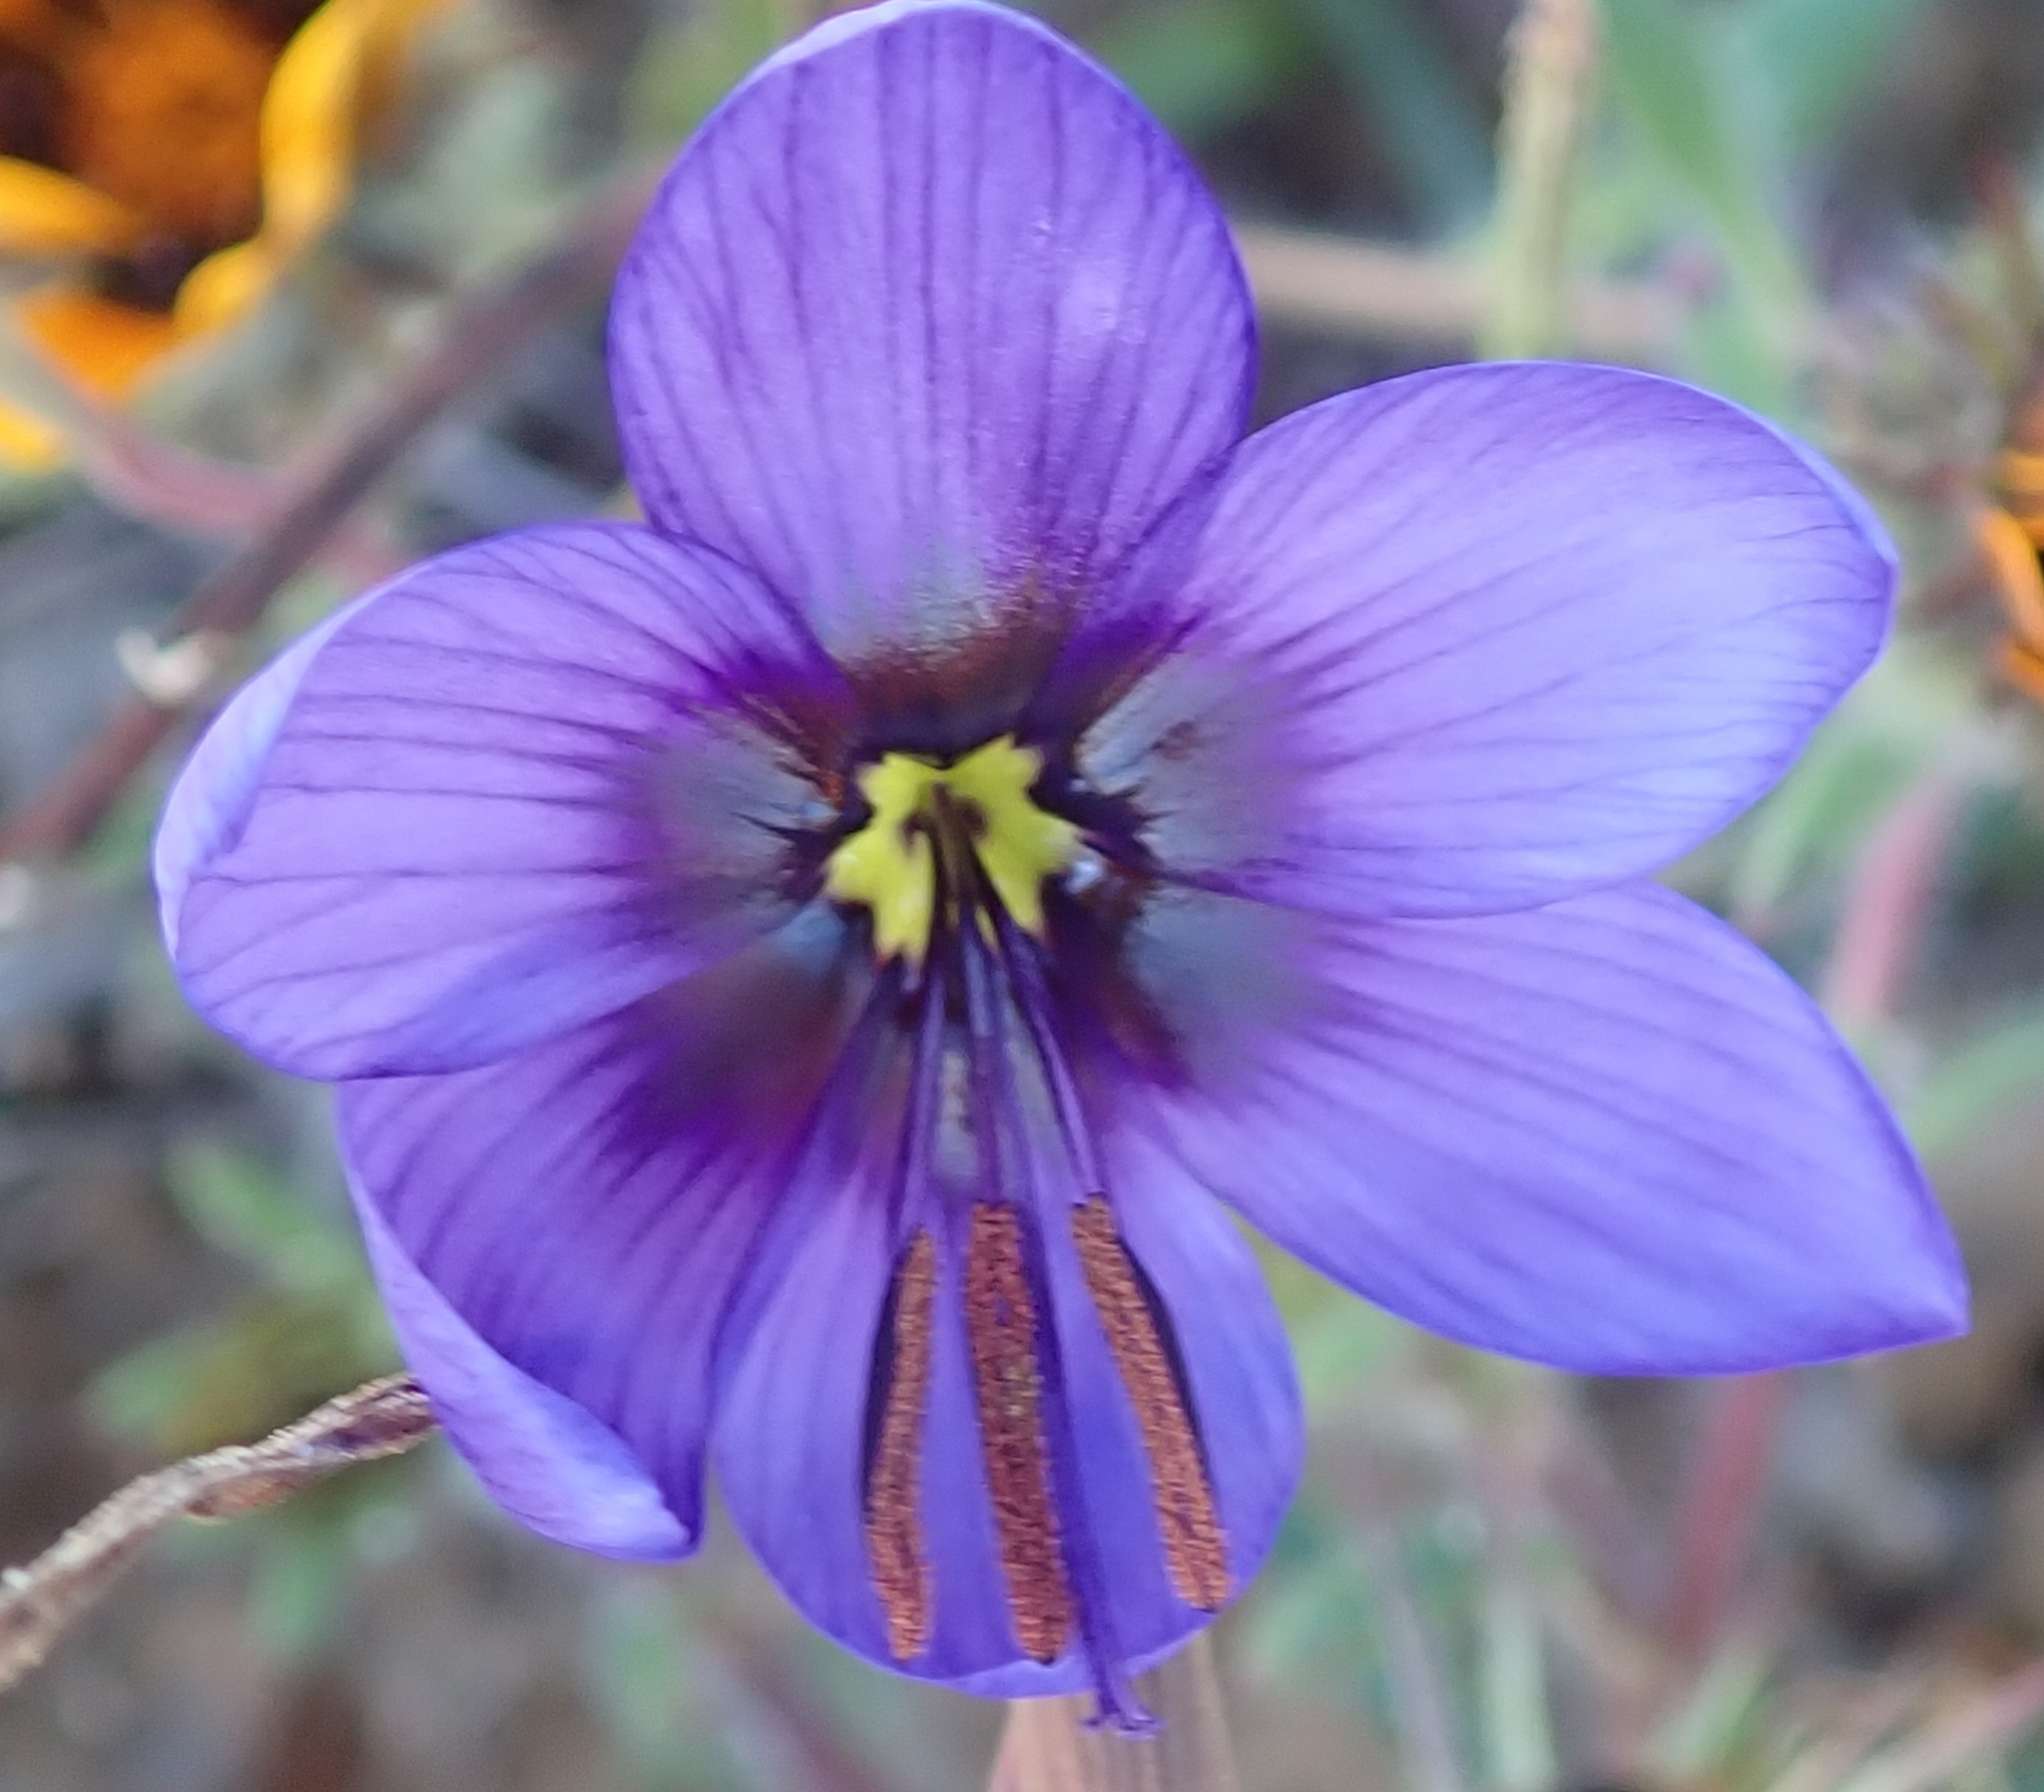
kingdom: Plantae
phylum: Tracheophyta
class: Liliopsida
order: Asparagales
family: Iridaceae
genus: Geissorhiza
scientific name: Geissorhiza splendidissima
